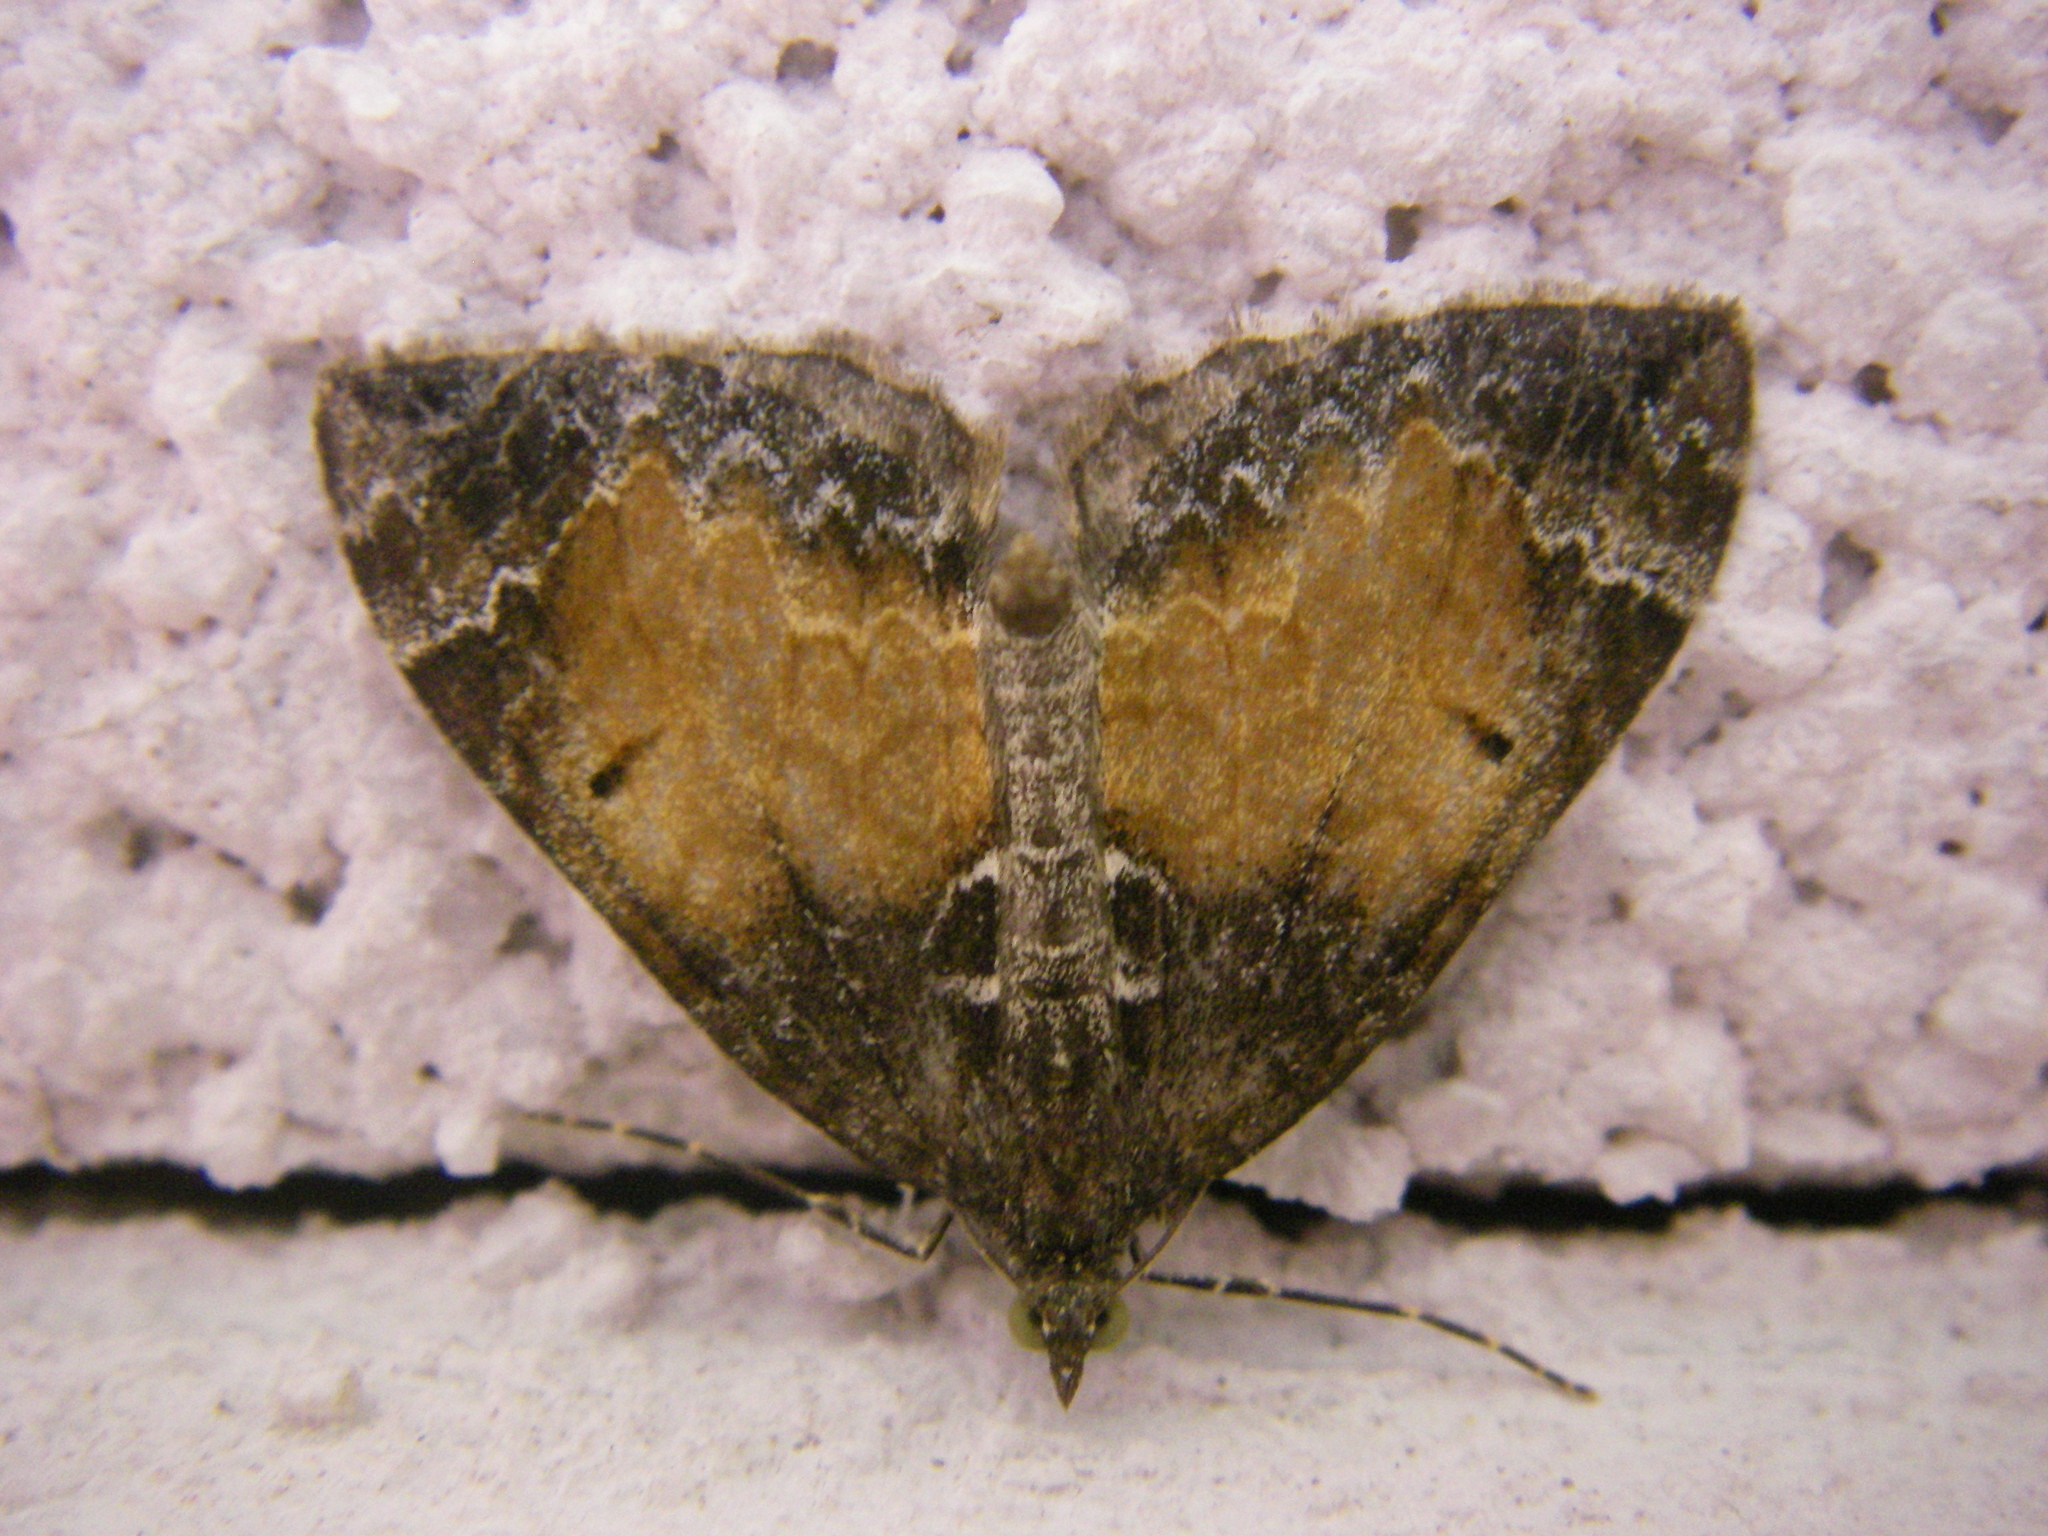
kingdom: Animalia
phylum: Arthropoda
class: Insecta
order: Lepidoptera
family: Geometridae
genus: Dysstroma
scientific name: Dysstroma truncata
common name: Common marbled carpet
